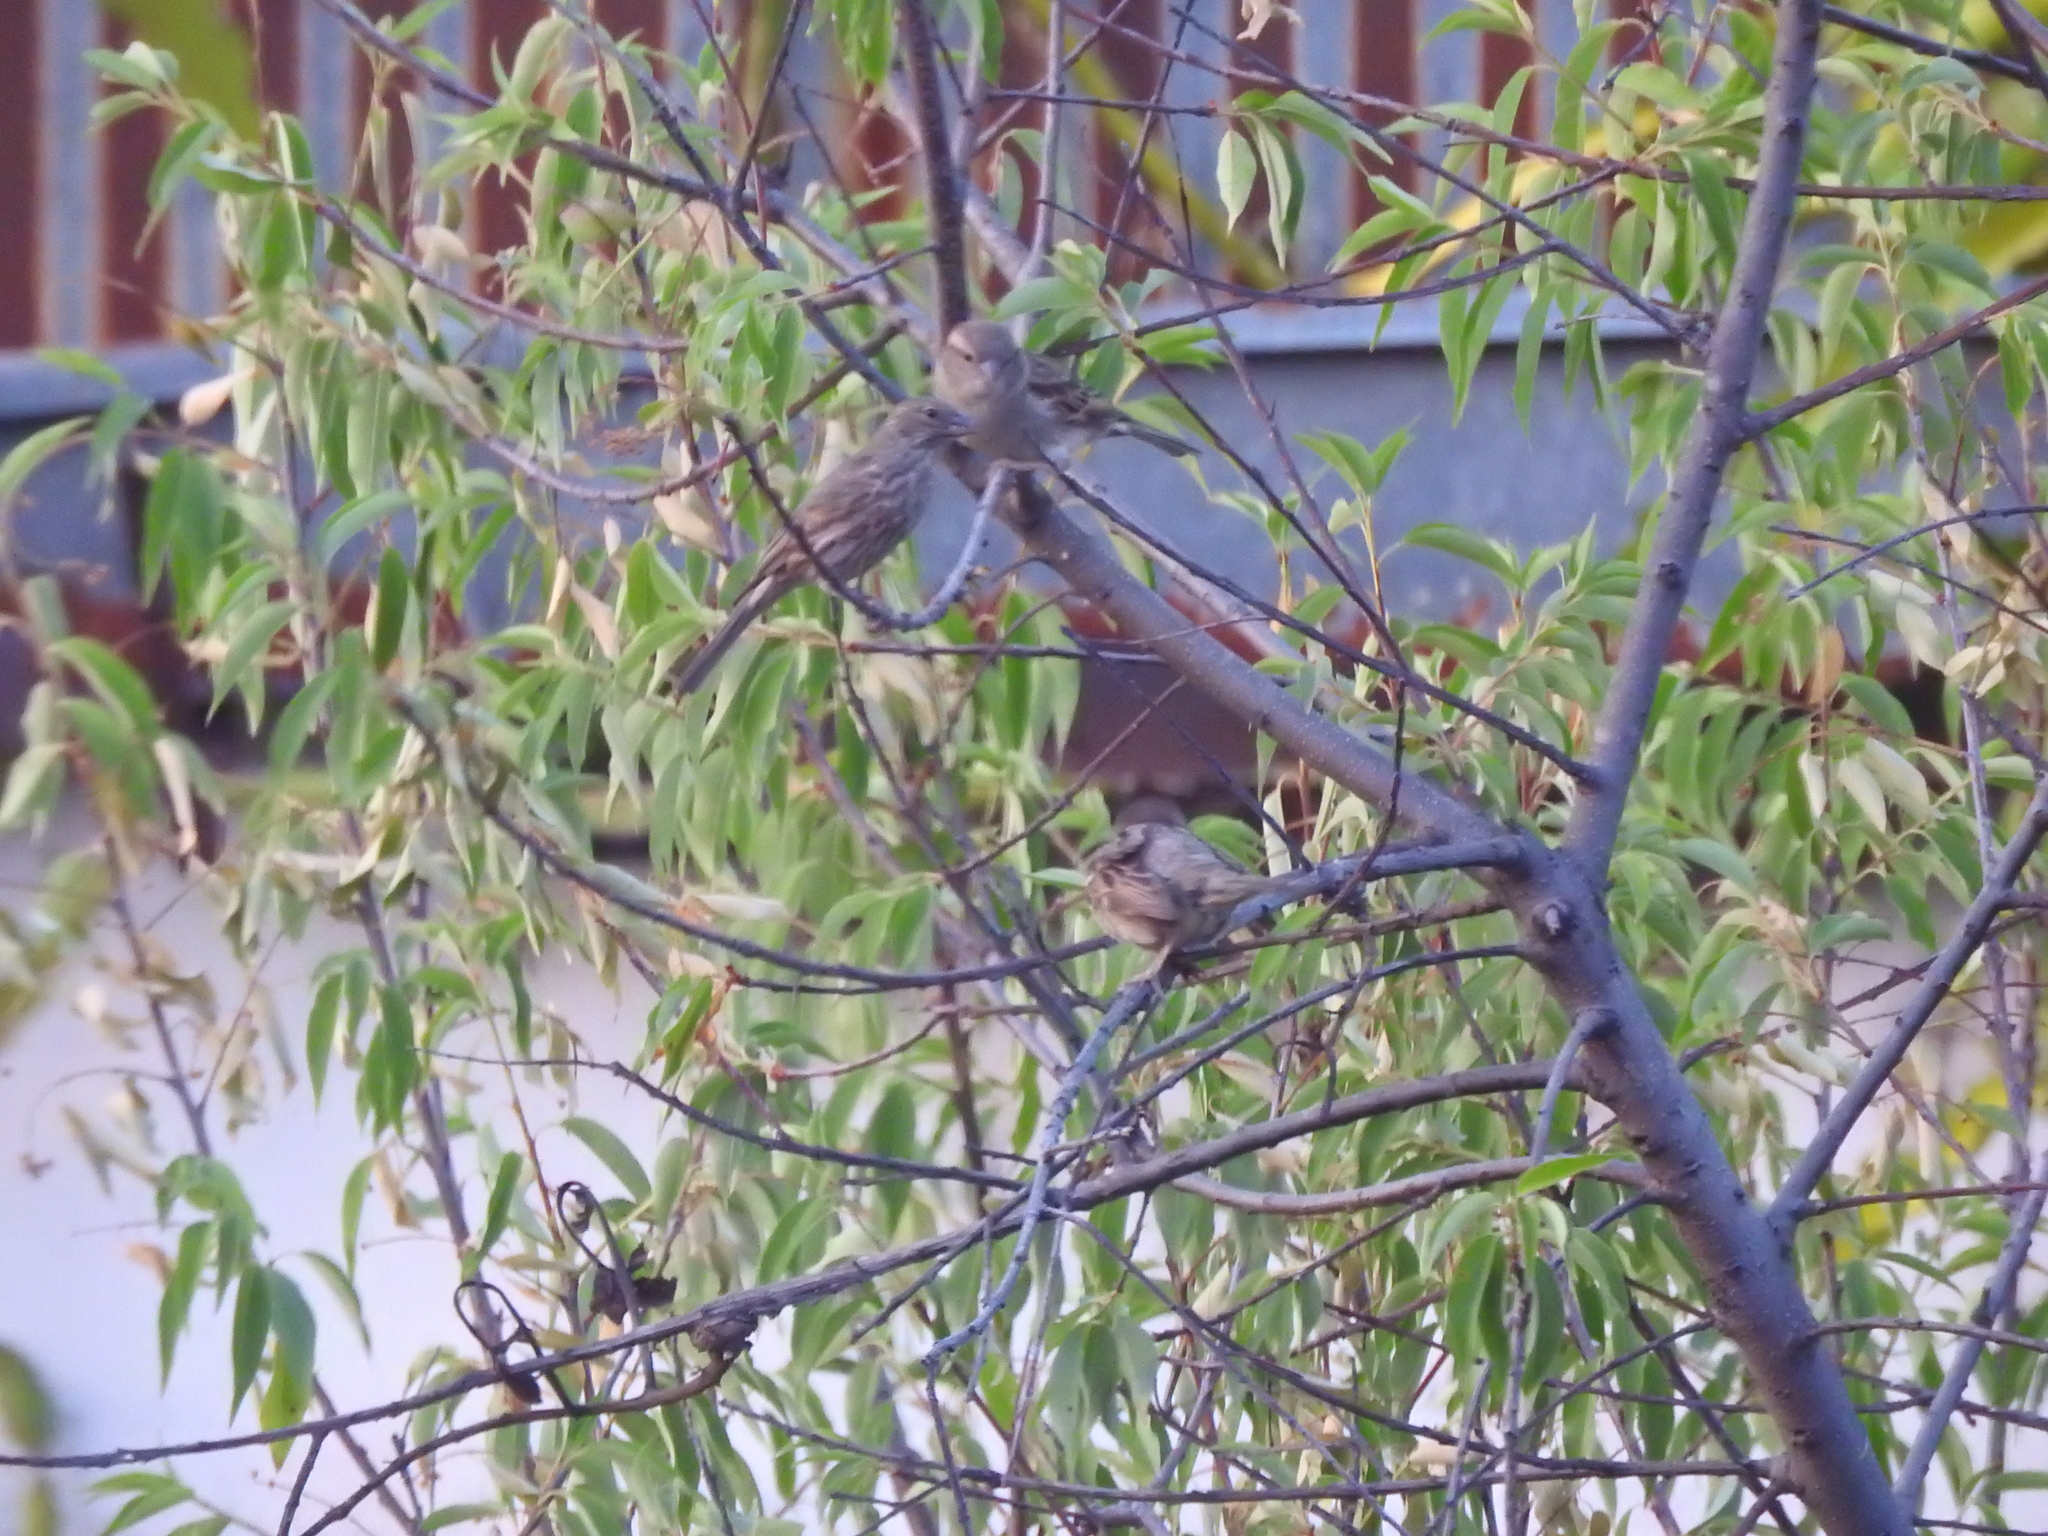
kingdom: Animalia
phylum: Chordata
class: Aves
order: Passeriformes
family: Passeridae
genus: Passer
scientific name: Passer domesticus
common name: House sparrow
